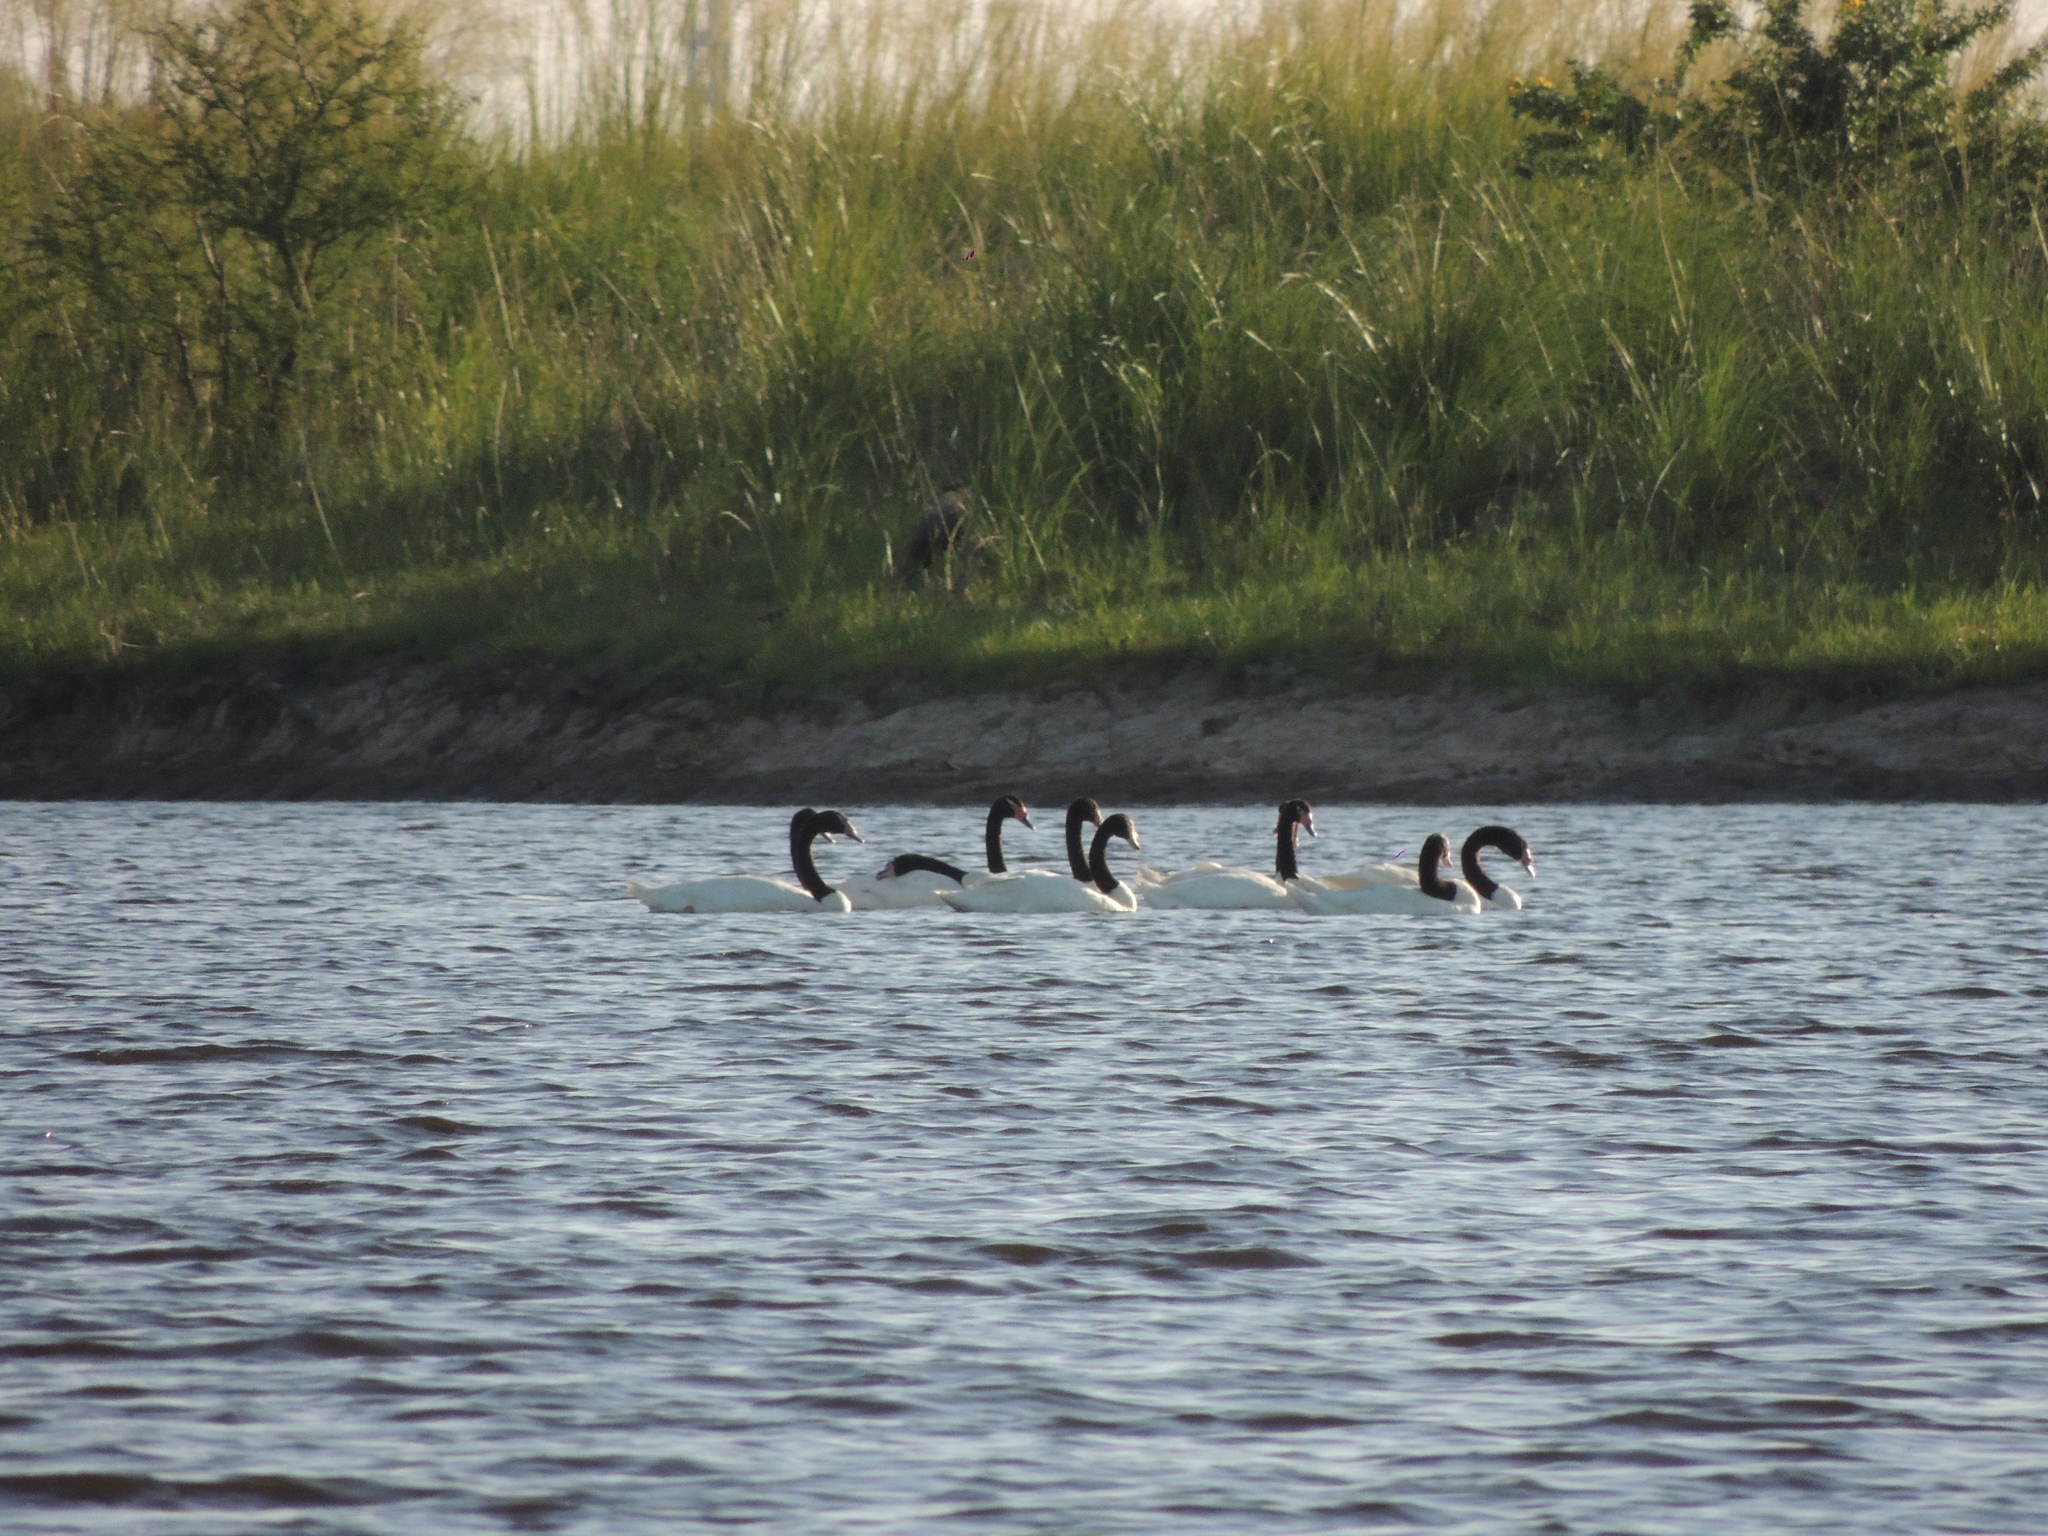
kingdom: Animalia
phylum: Chordata
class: Aves
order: Anseriformes
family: Anatidae
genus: Cygnus
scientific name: Cygnus melancoryphus
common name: Black-necked swan
